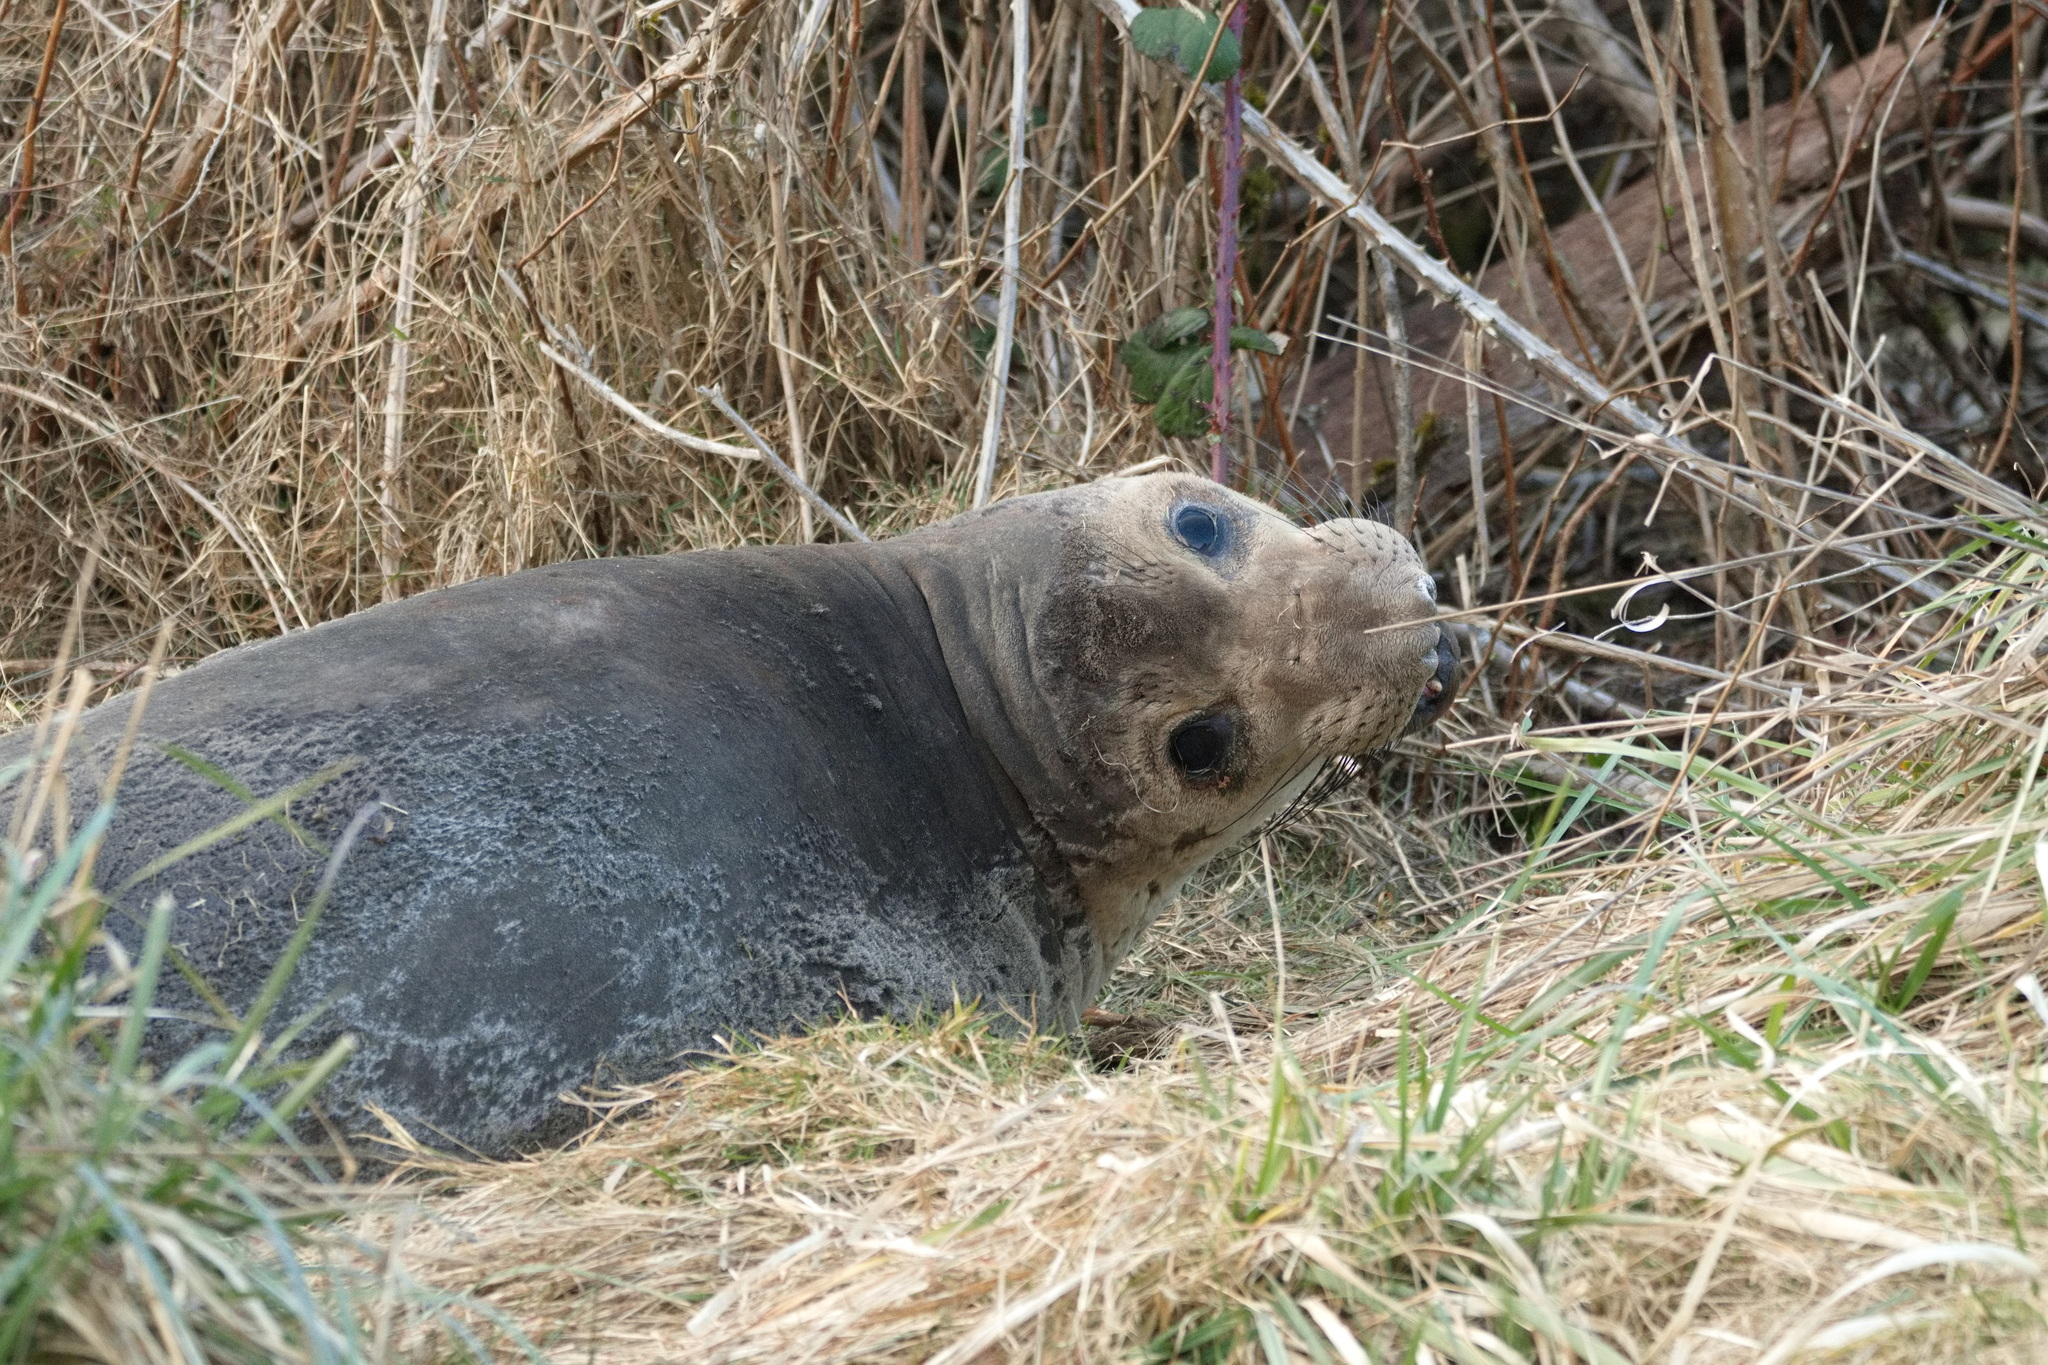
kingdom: Animalia
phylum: Chordata
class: Mammalia
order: Carnivora
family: Phocidae
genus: Mirounga
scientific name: Mirounga angustirostris
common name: Northern elephant seal
